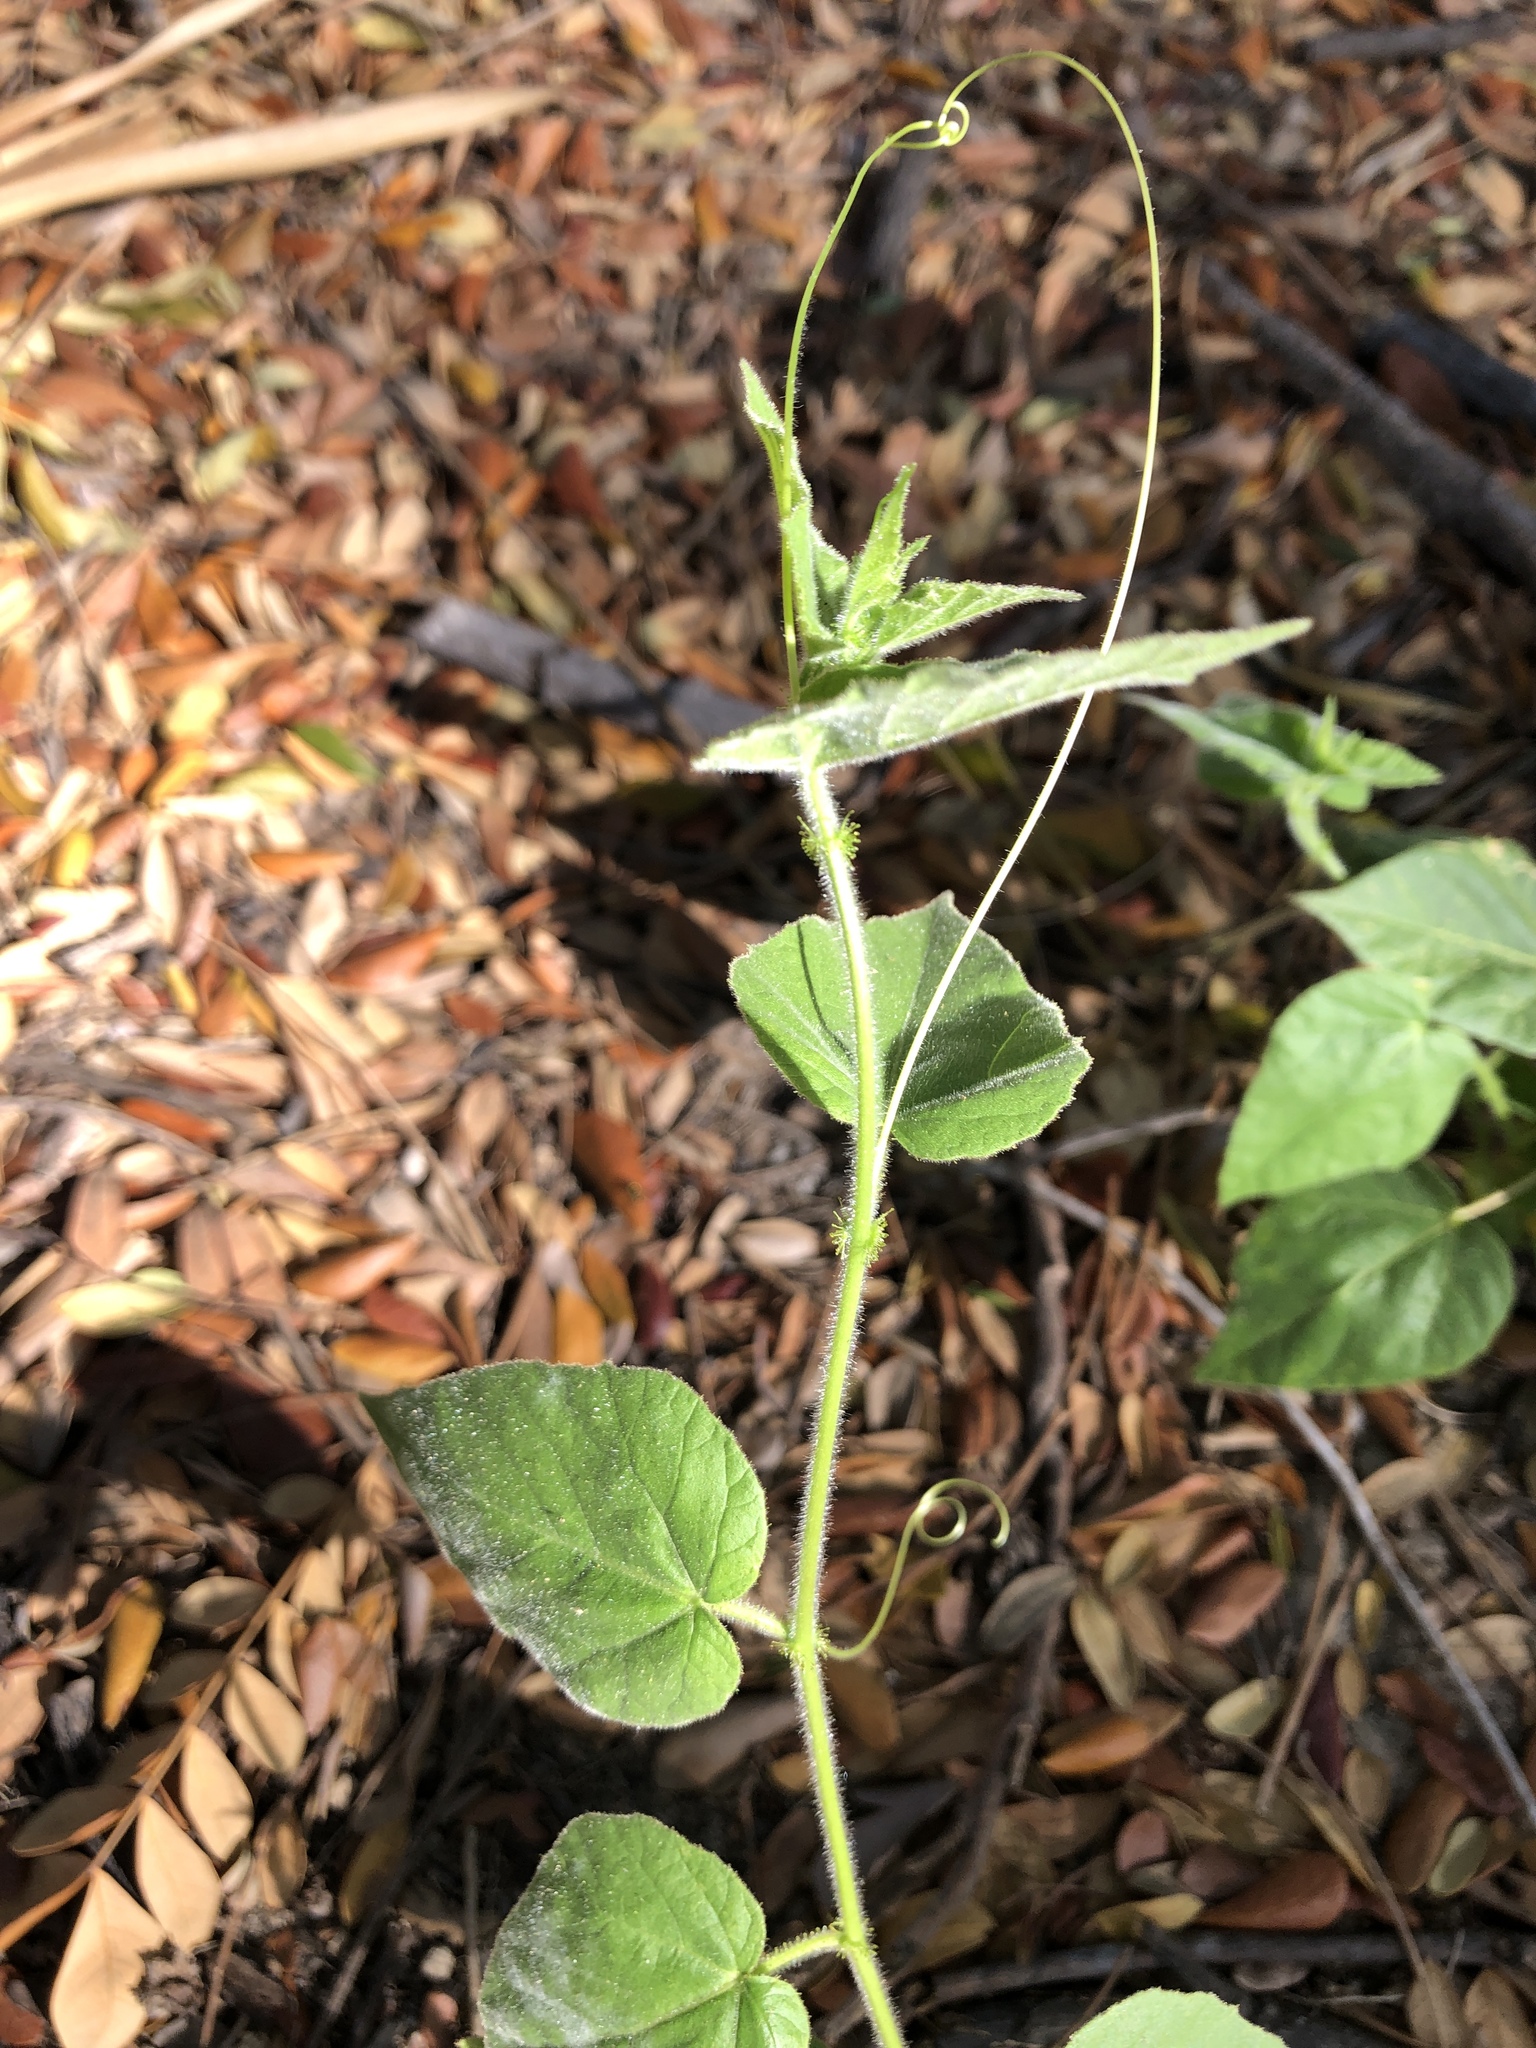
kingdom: Plantae
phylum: Tracheophyta
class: Magnoliopsida
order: Malpighiales
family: Passifloraceae
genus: Passiflora
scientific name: Passiflora foetida
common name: Fetid passionflower
